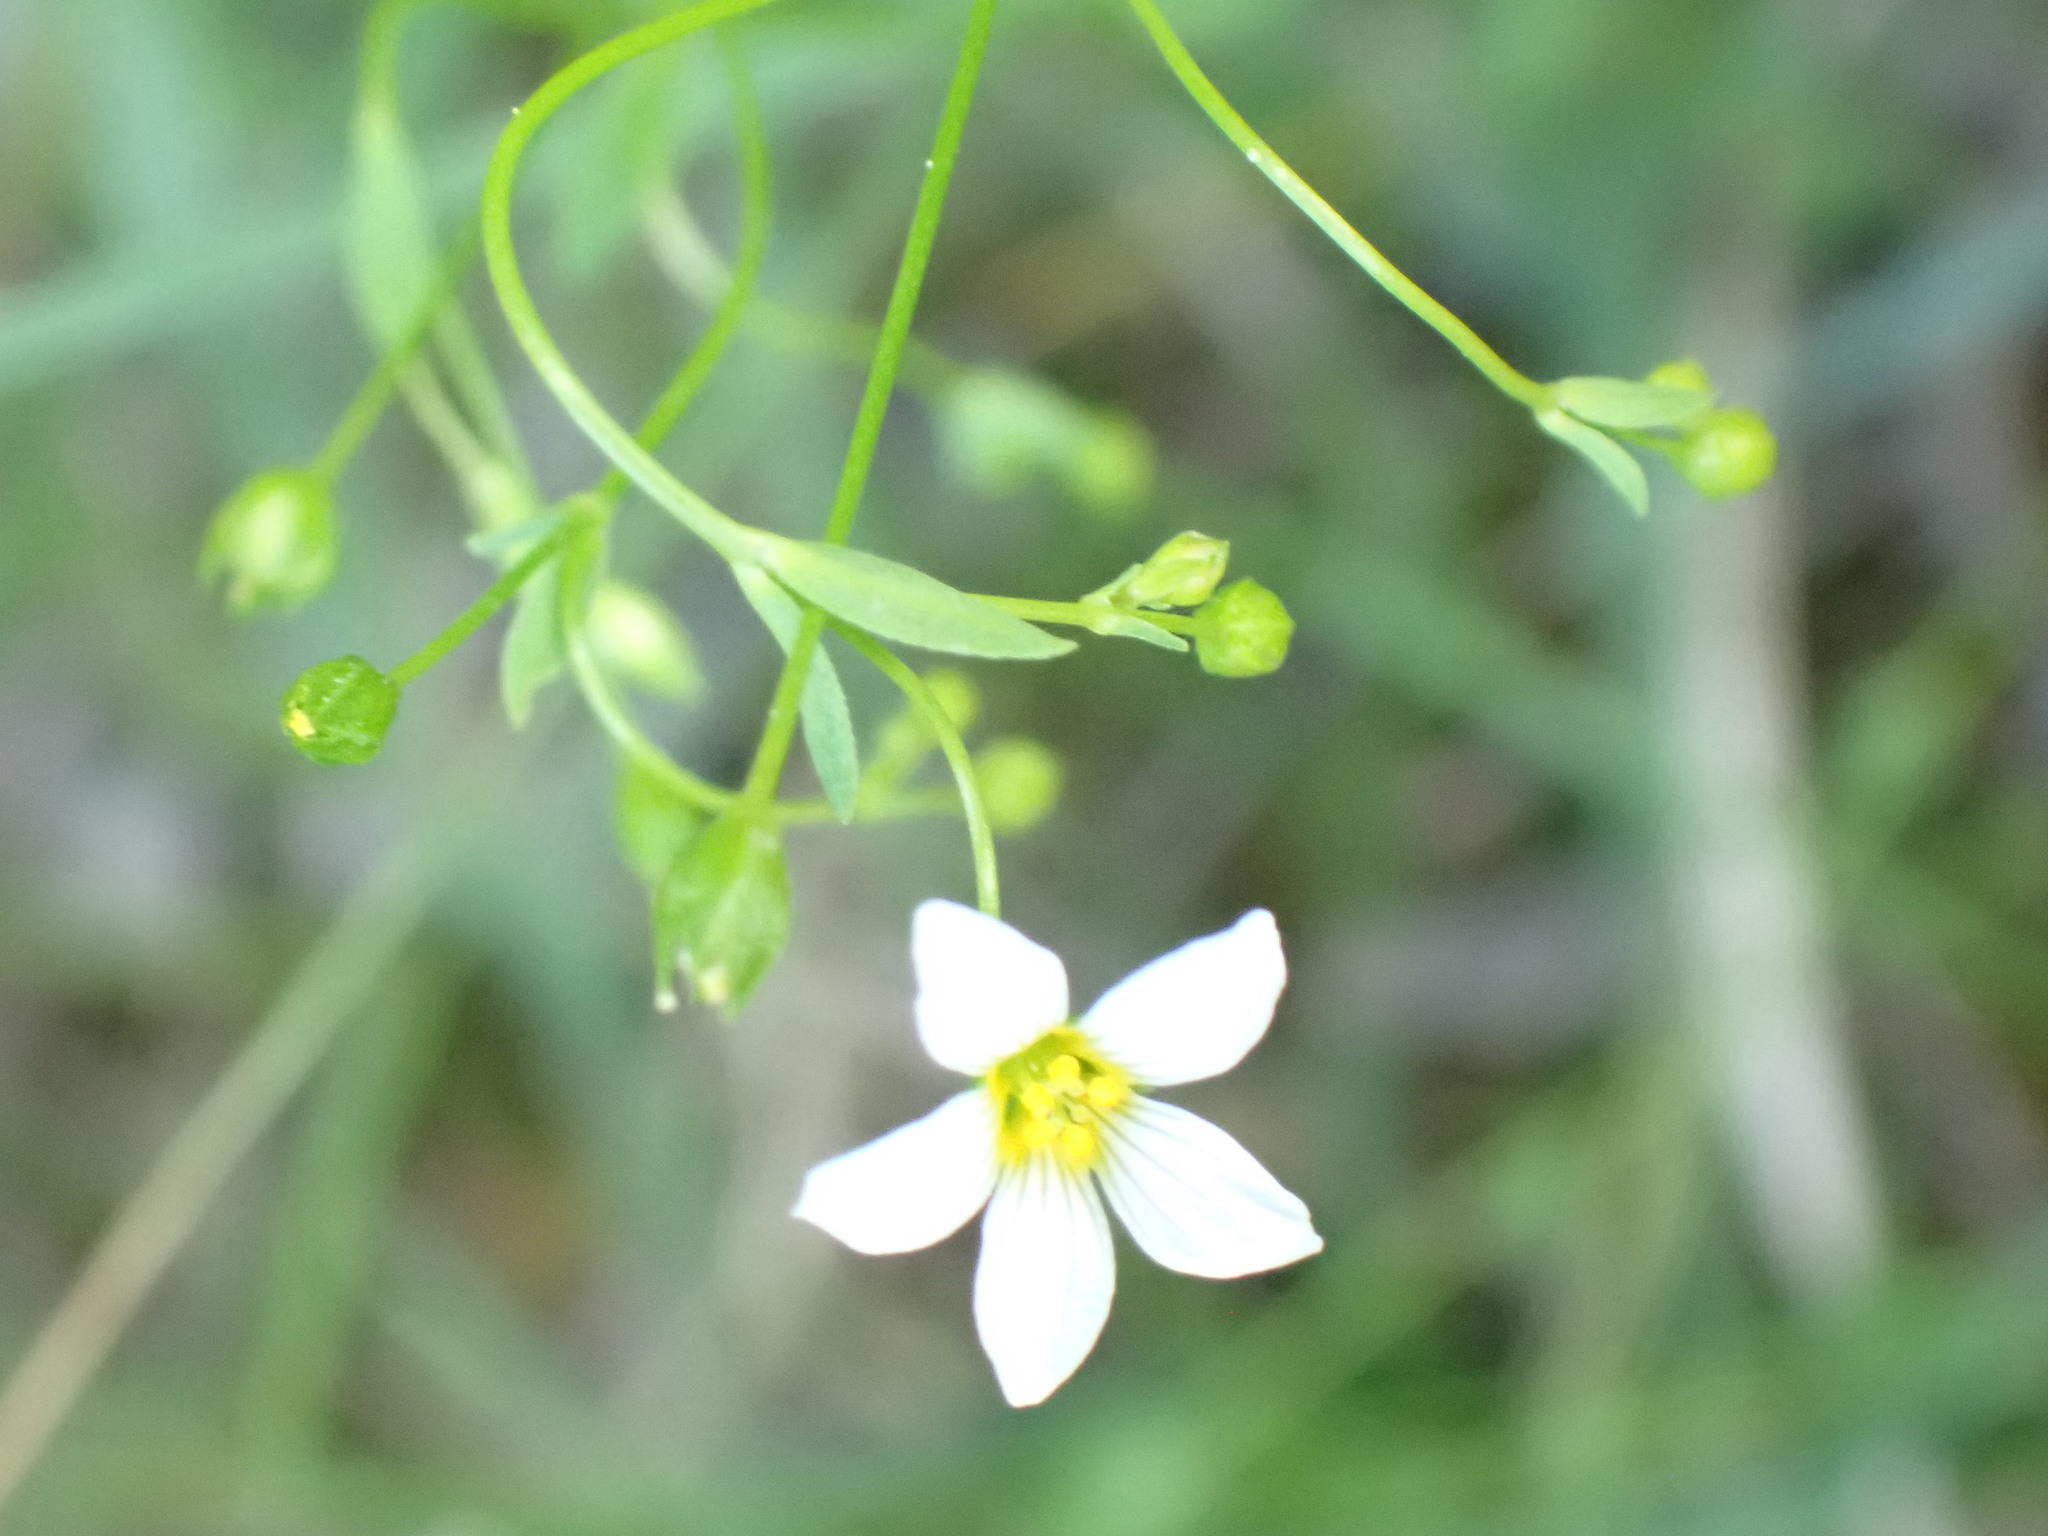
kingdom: Plantae
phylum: Tracheophyta
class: Magnoliopsida
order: Malpighiales
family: Linaceae
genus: Linum
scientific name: Linum catharticum
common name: Fairy flax
